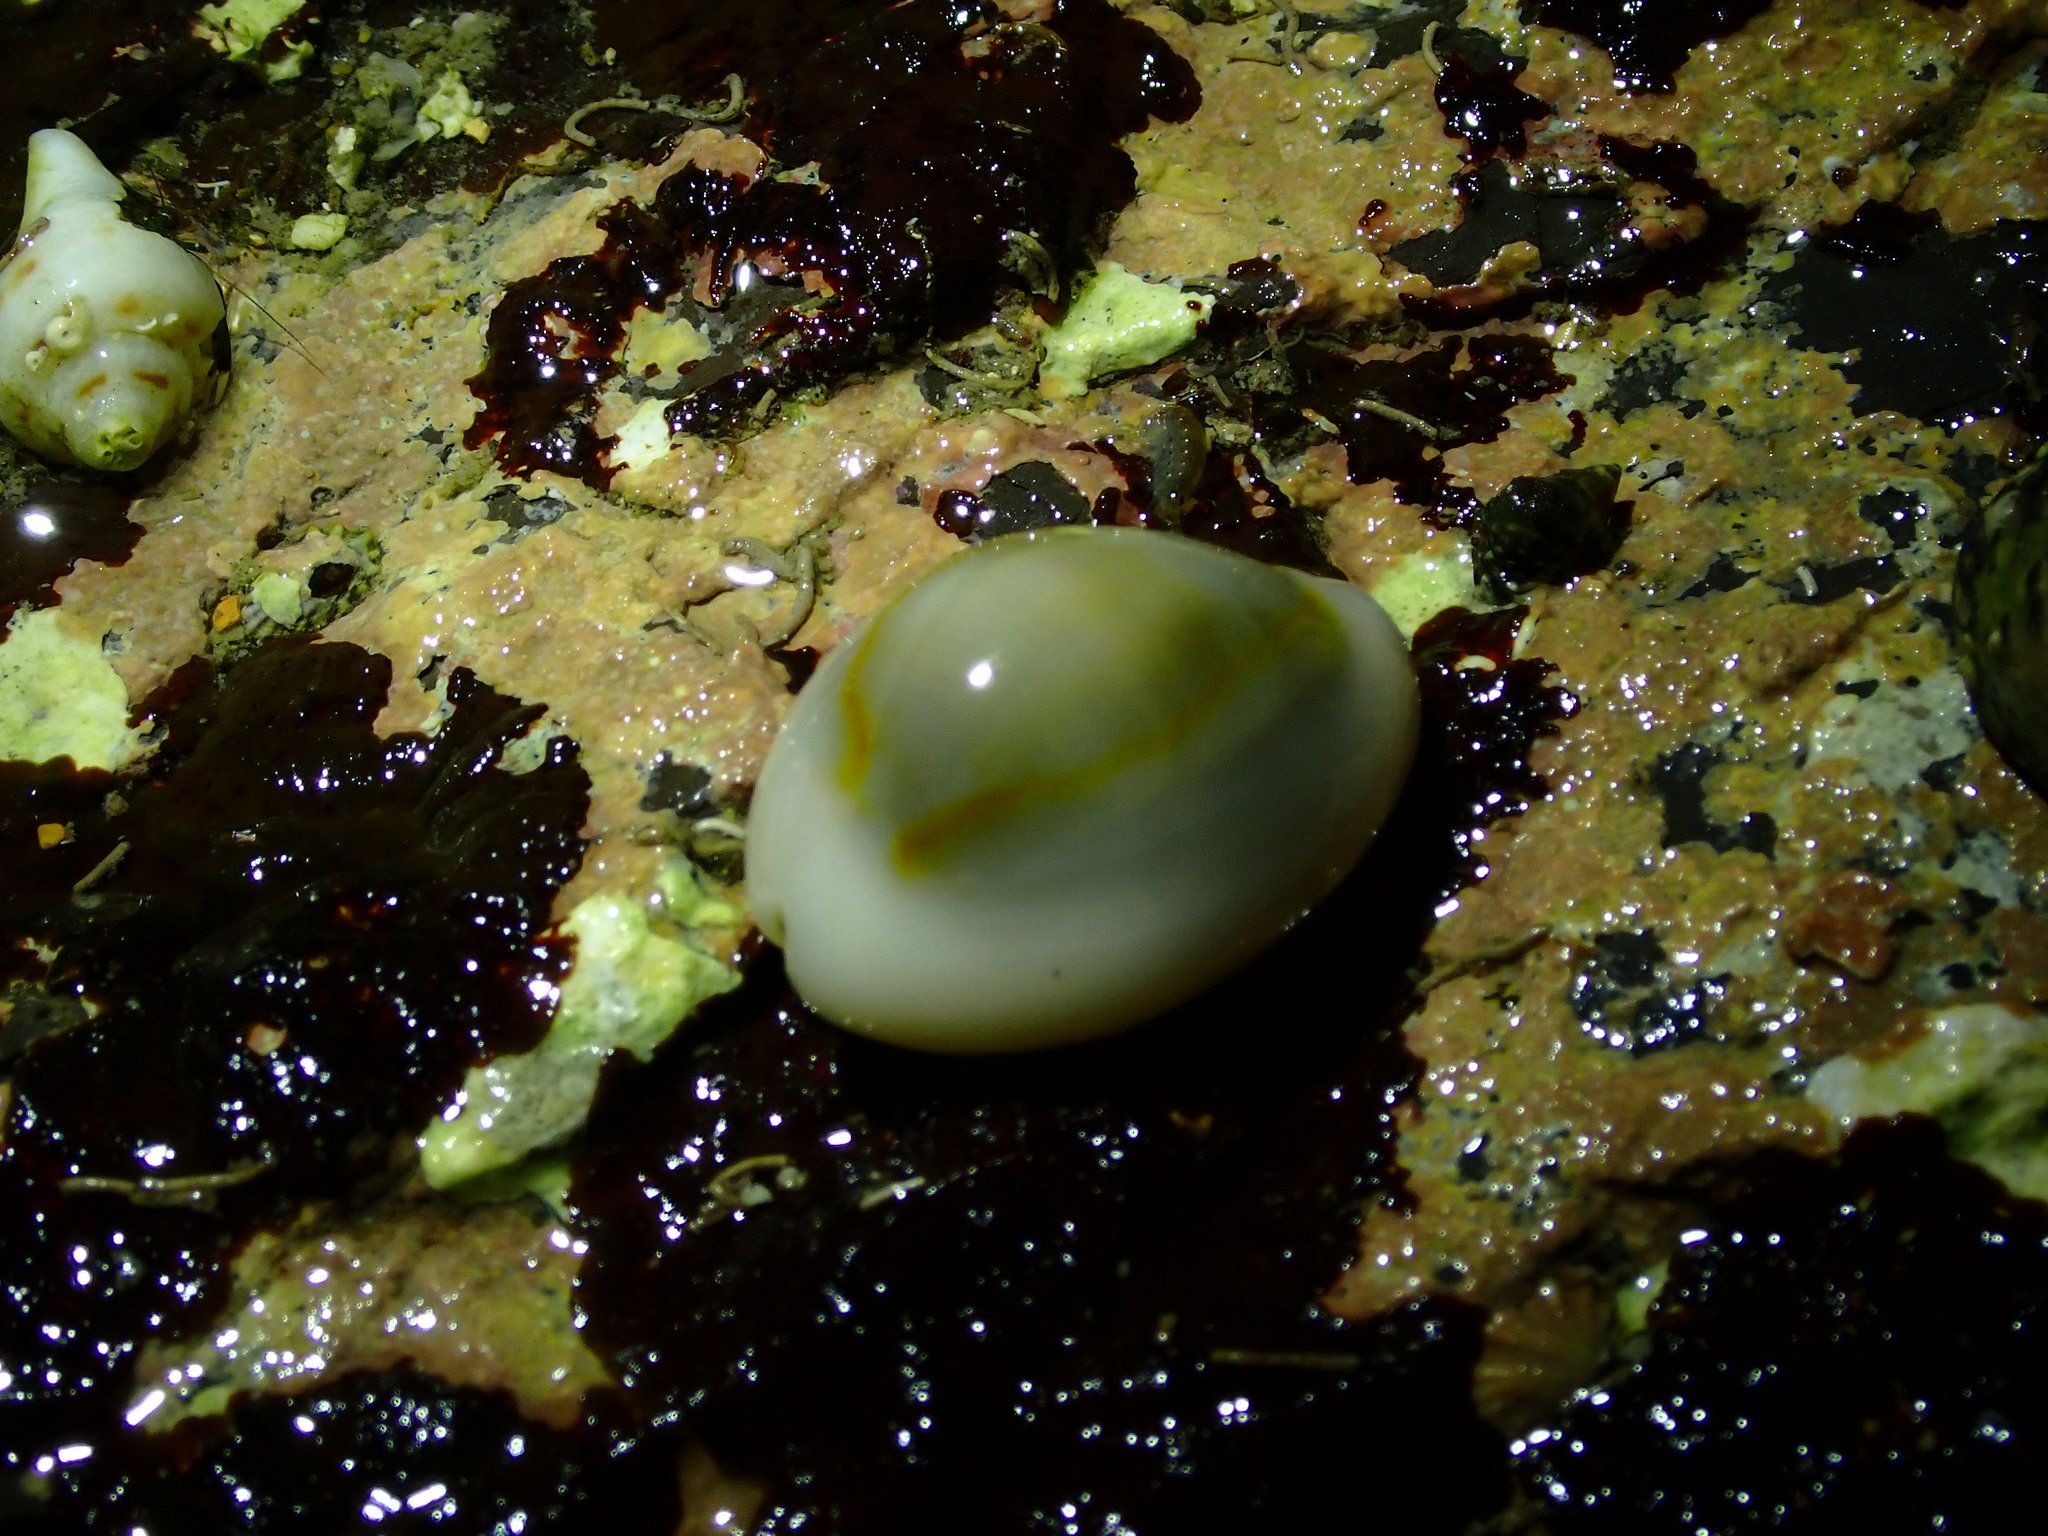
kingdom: Animalia
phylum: Mollusca
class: Gastropoda
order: Littorinimorpha
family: Cypraeidae
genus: Monetaria
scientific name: Monetaria annulus
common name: Ring cowrie
